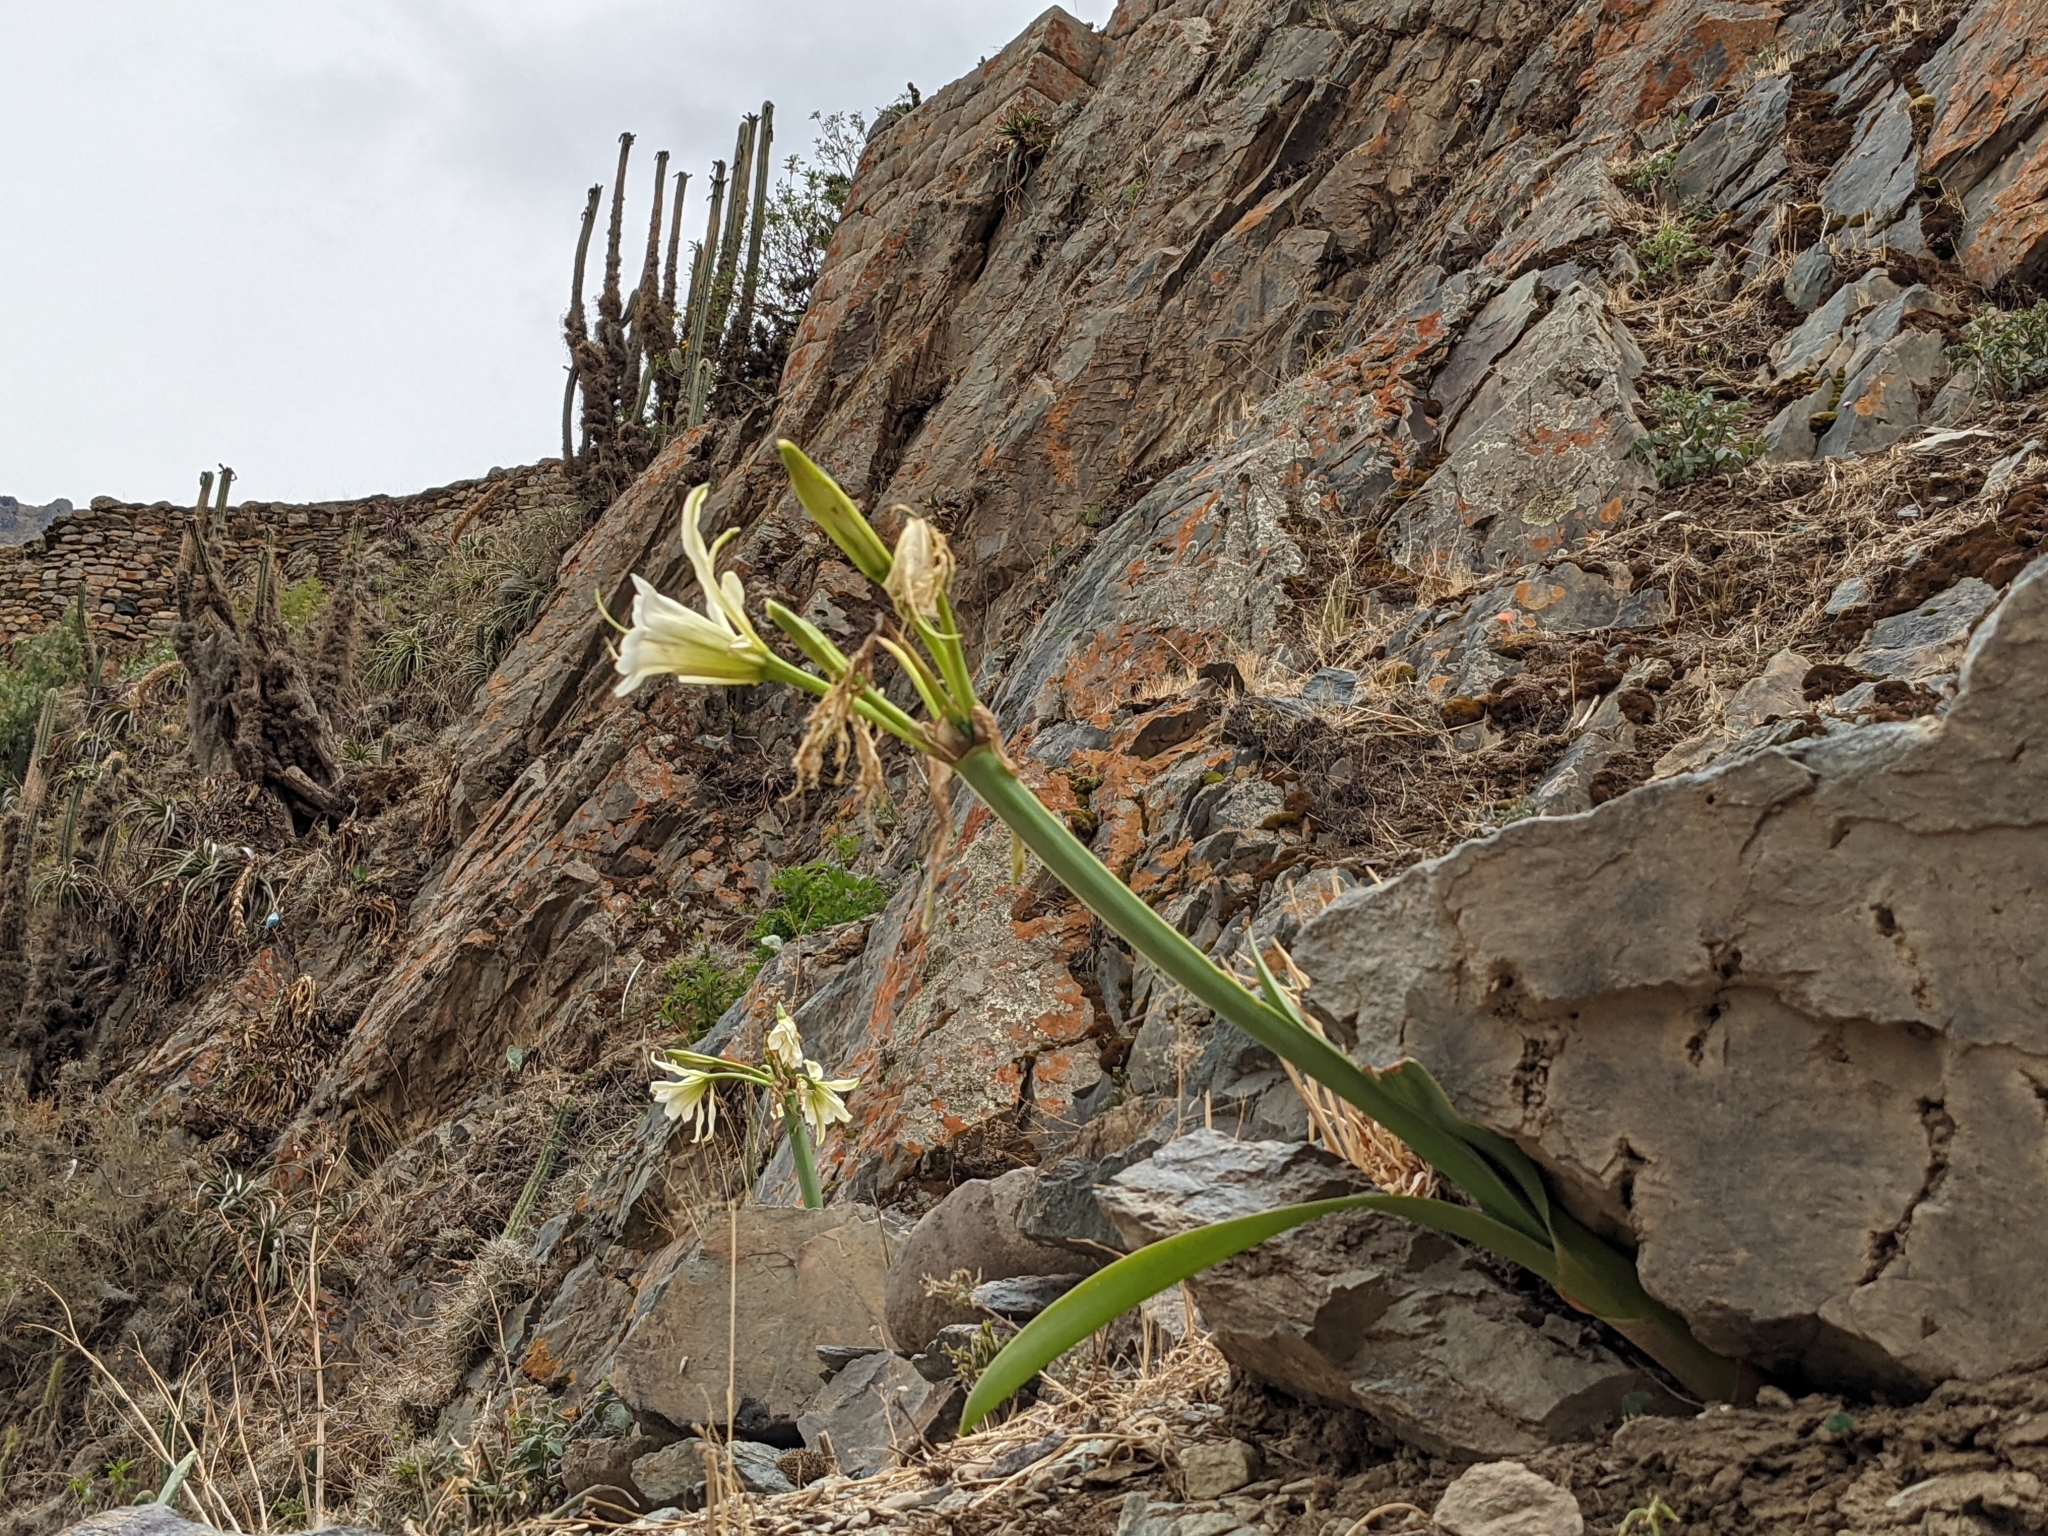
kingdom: Plantae
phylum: Tracheophyta
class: Liliopsida
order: Asparagales
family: Amaryllidaceae
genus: Ismene
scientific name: Ismene hawkesii
